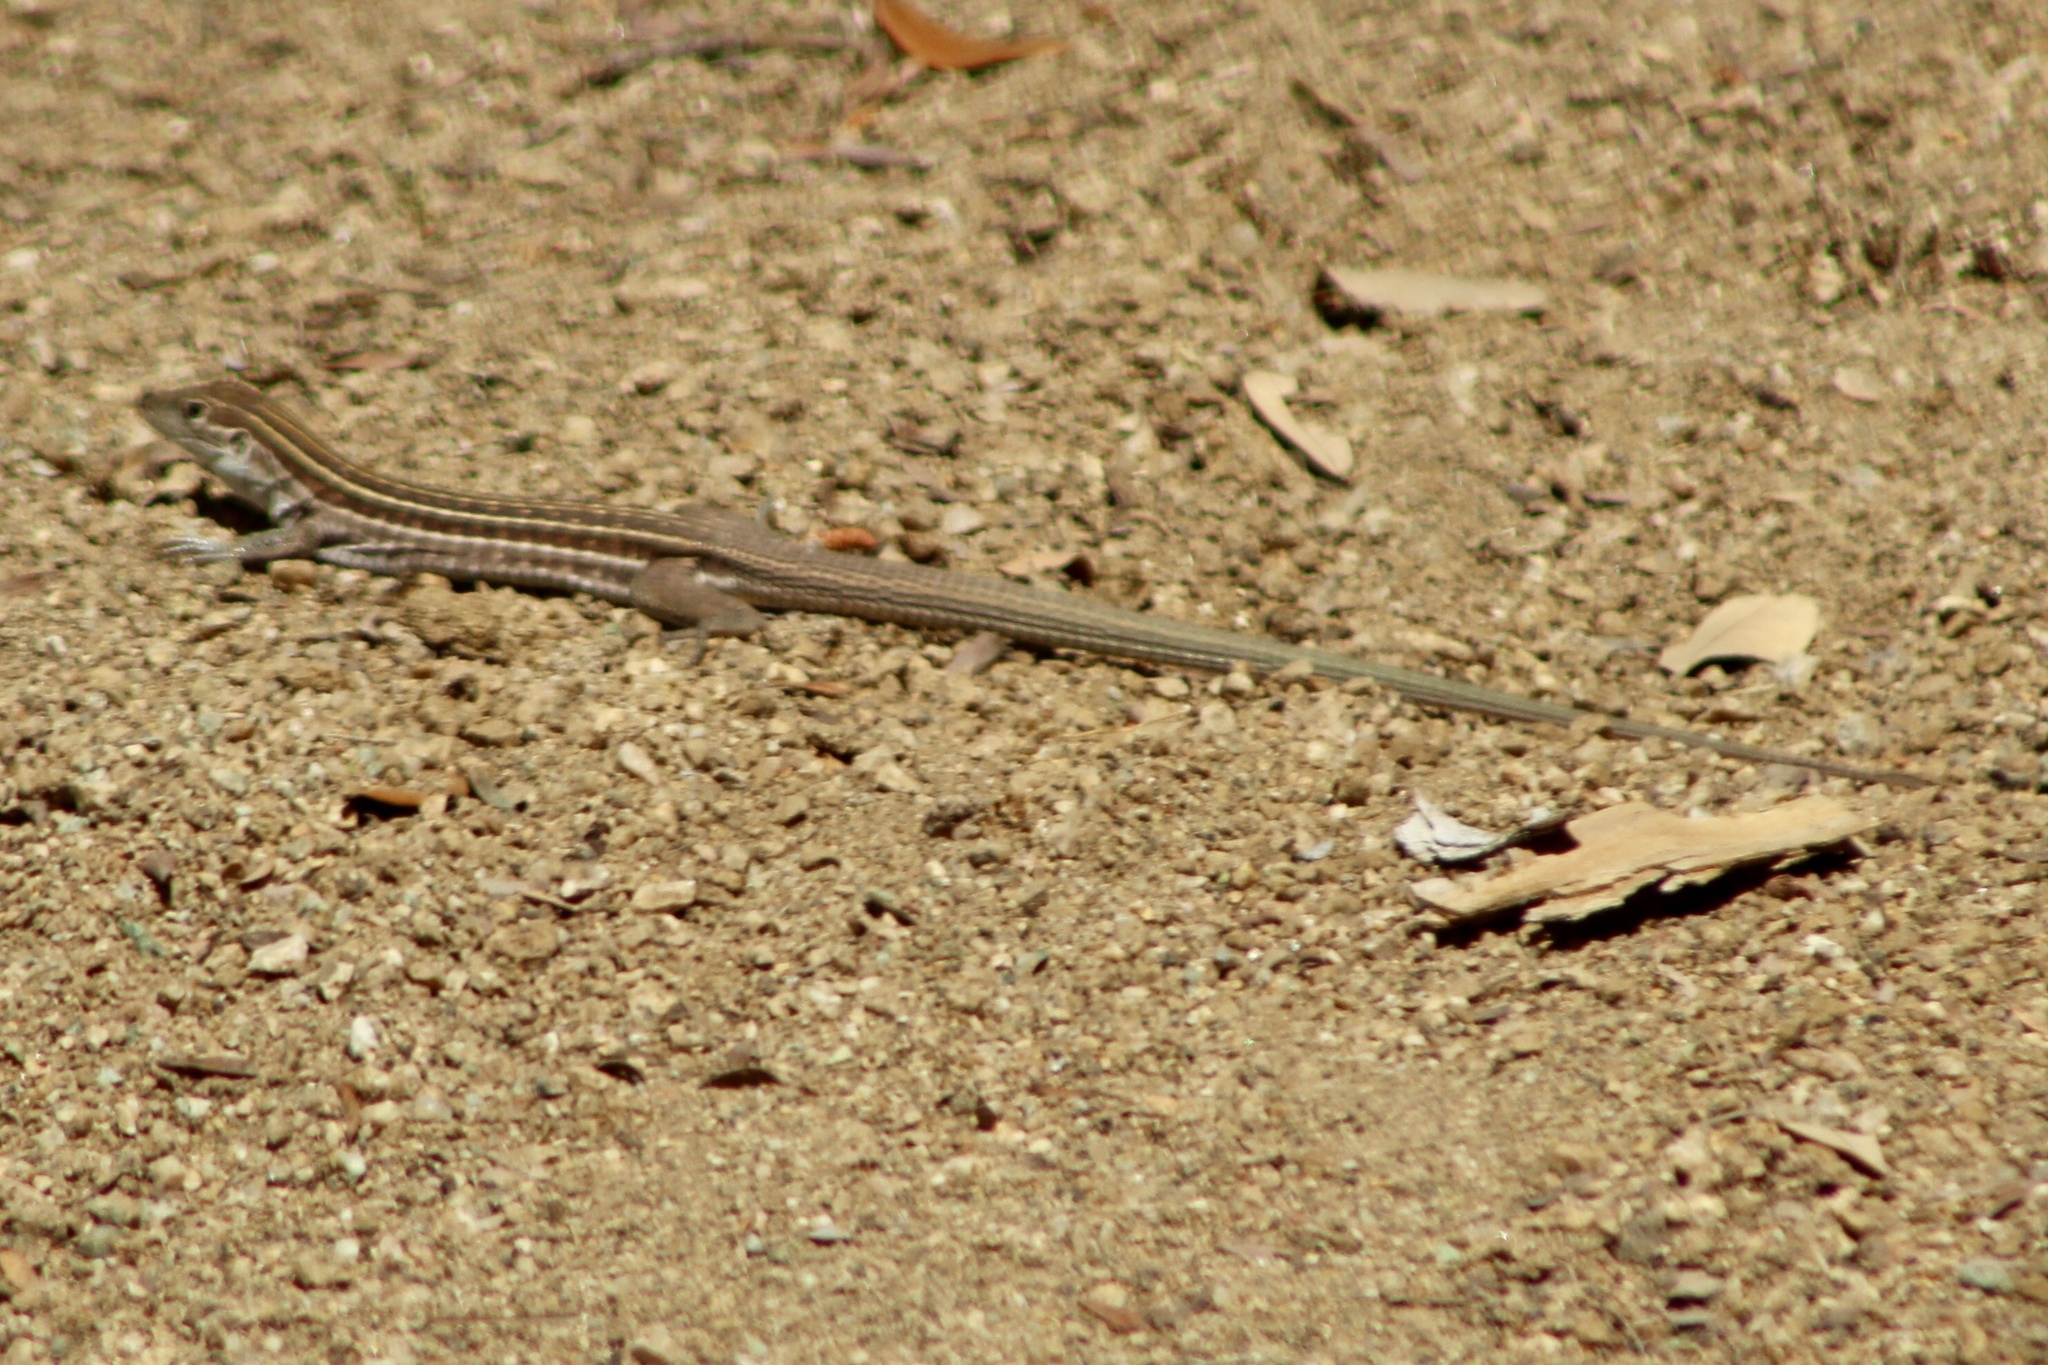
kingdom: Animalia
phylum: Chordata
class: Squamata
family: Teiidae
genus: Aspidoscelis
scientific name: Aspidoscelis sonorae
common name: Sonoran spotted whiptail
